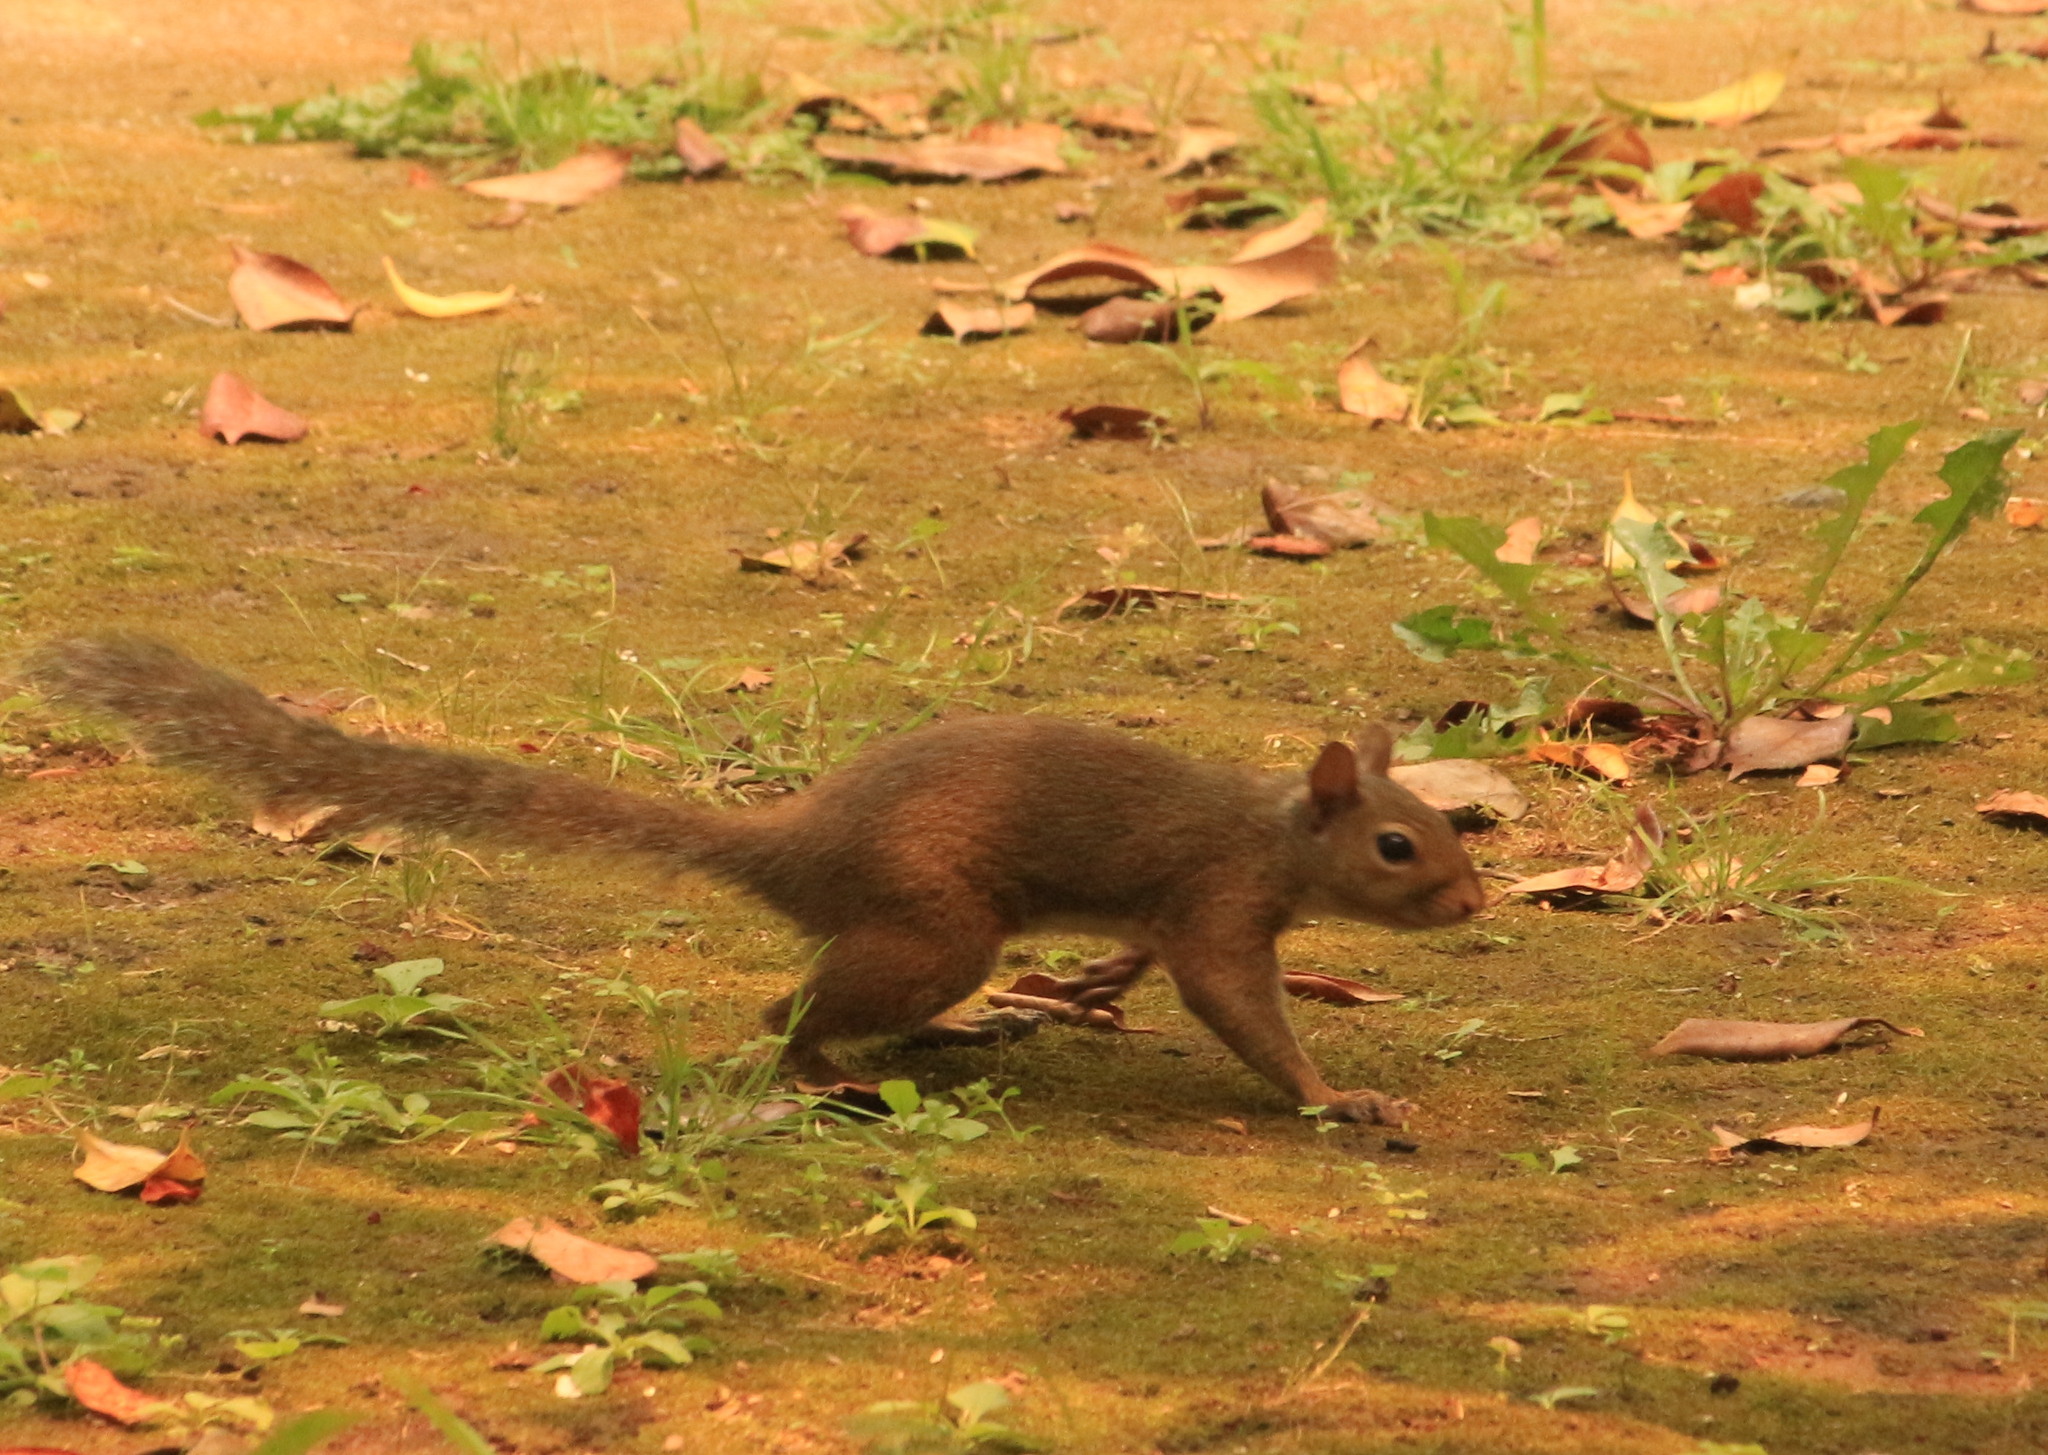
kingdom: Animalia
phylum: Chordata
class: Mammalia
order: Rodentia
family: Sciuridae
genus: Sciurus
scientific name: Sciurus carolinensis
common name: Eastern gray squirrel
